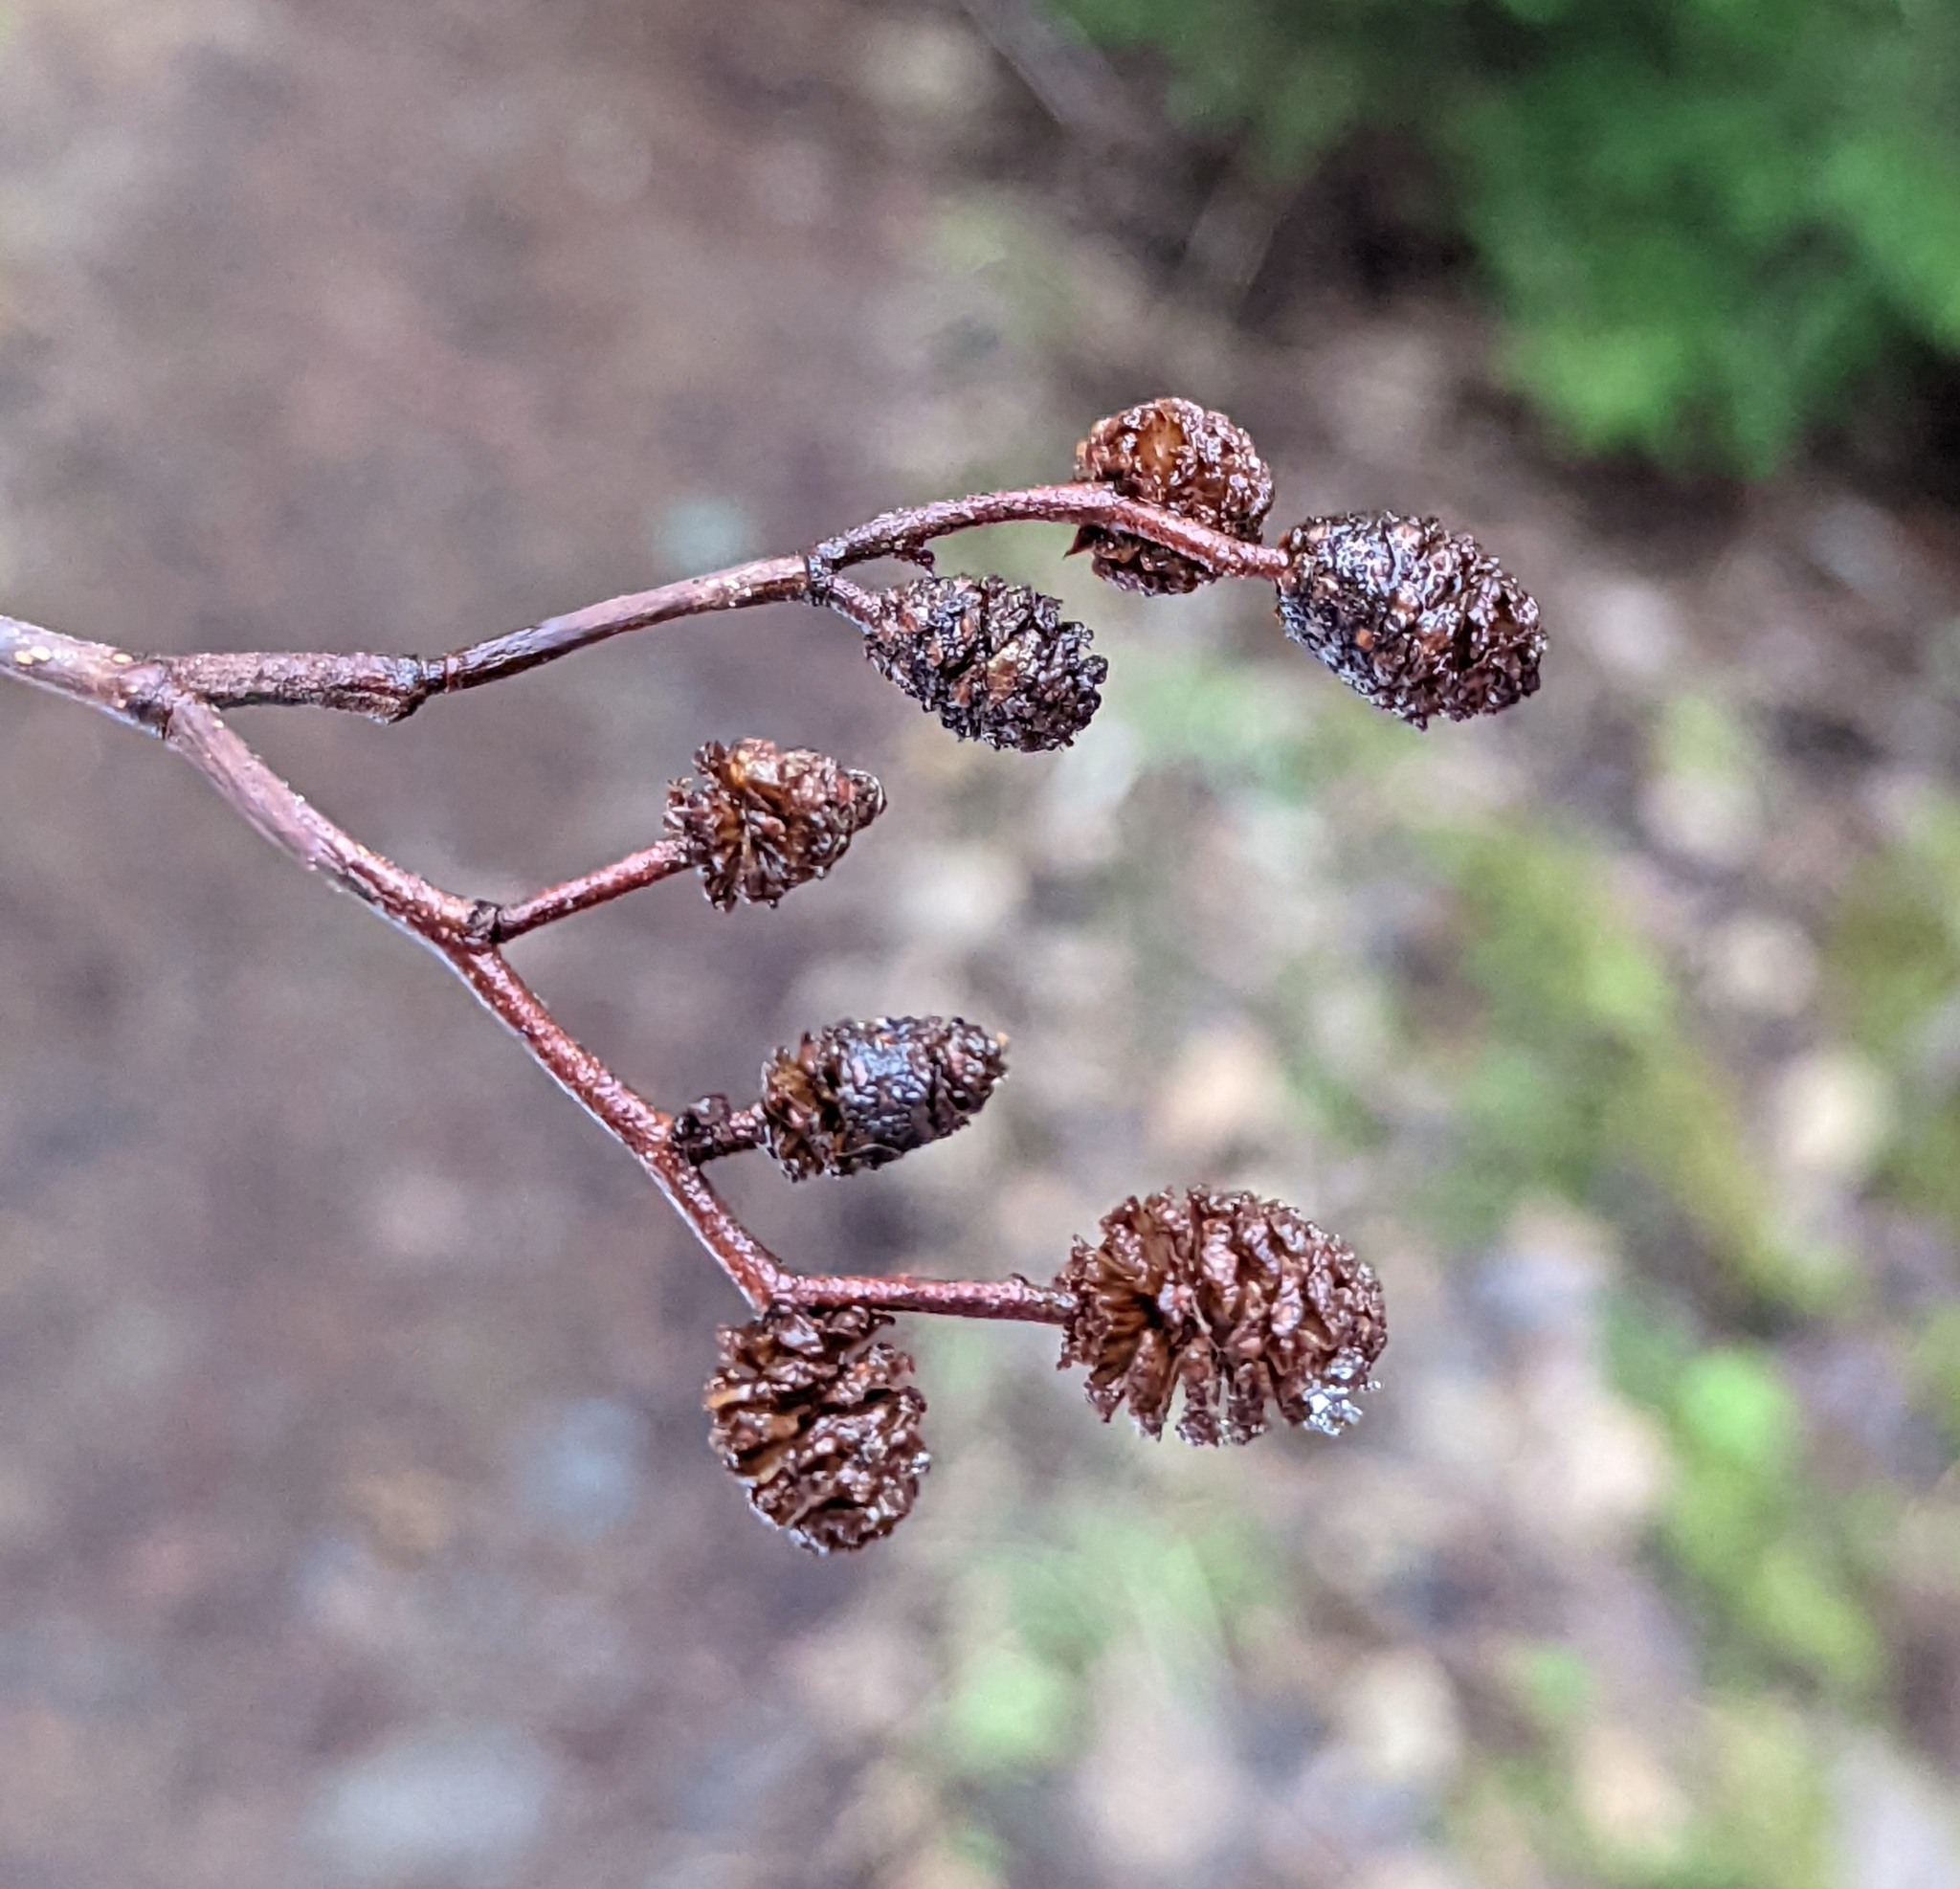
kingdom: Plantae
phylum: Tracheophyta
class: Magnoliopsida
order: Fagales
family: Betulaceae
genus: Alnus
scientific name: Alnus rubra
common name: Red alder
